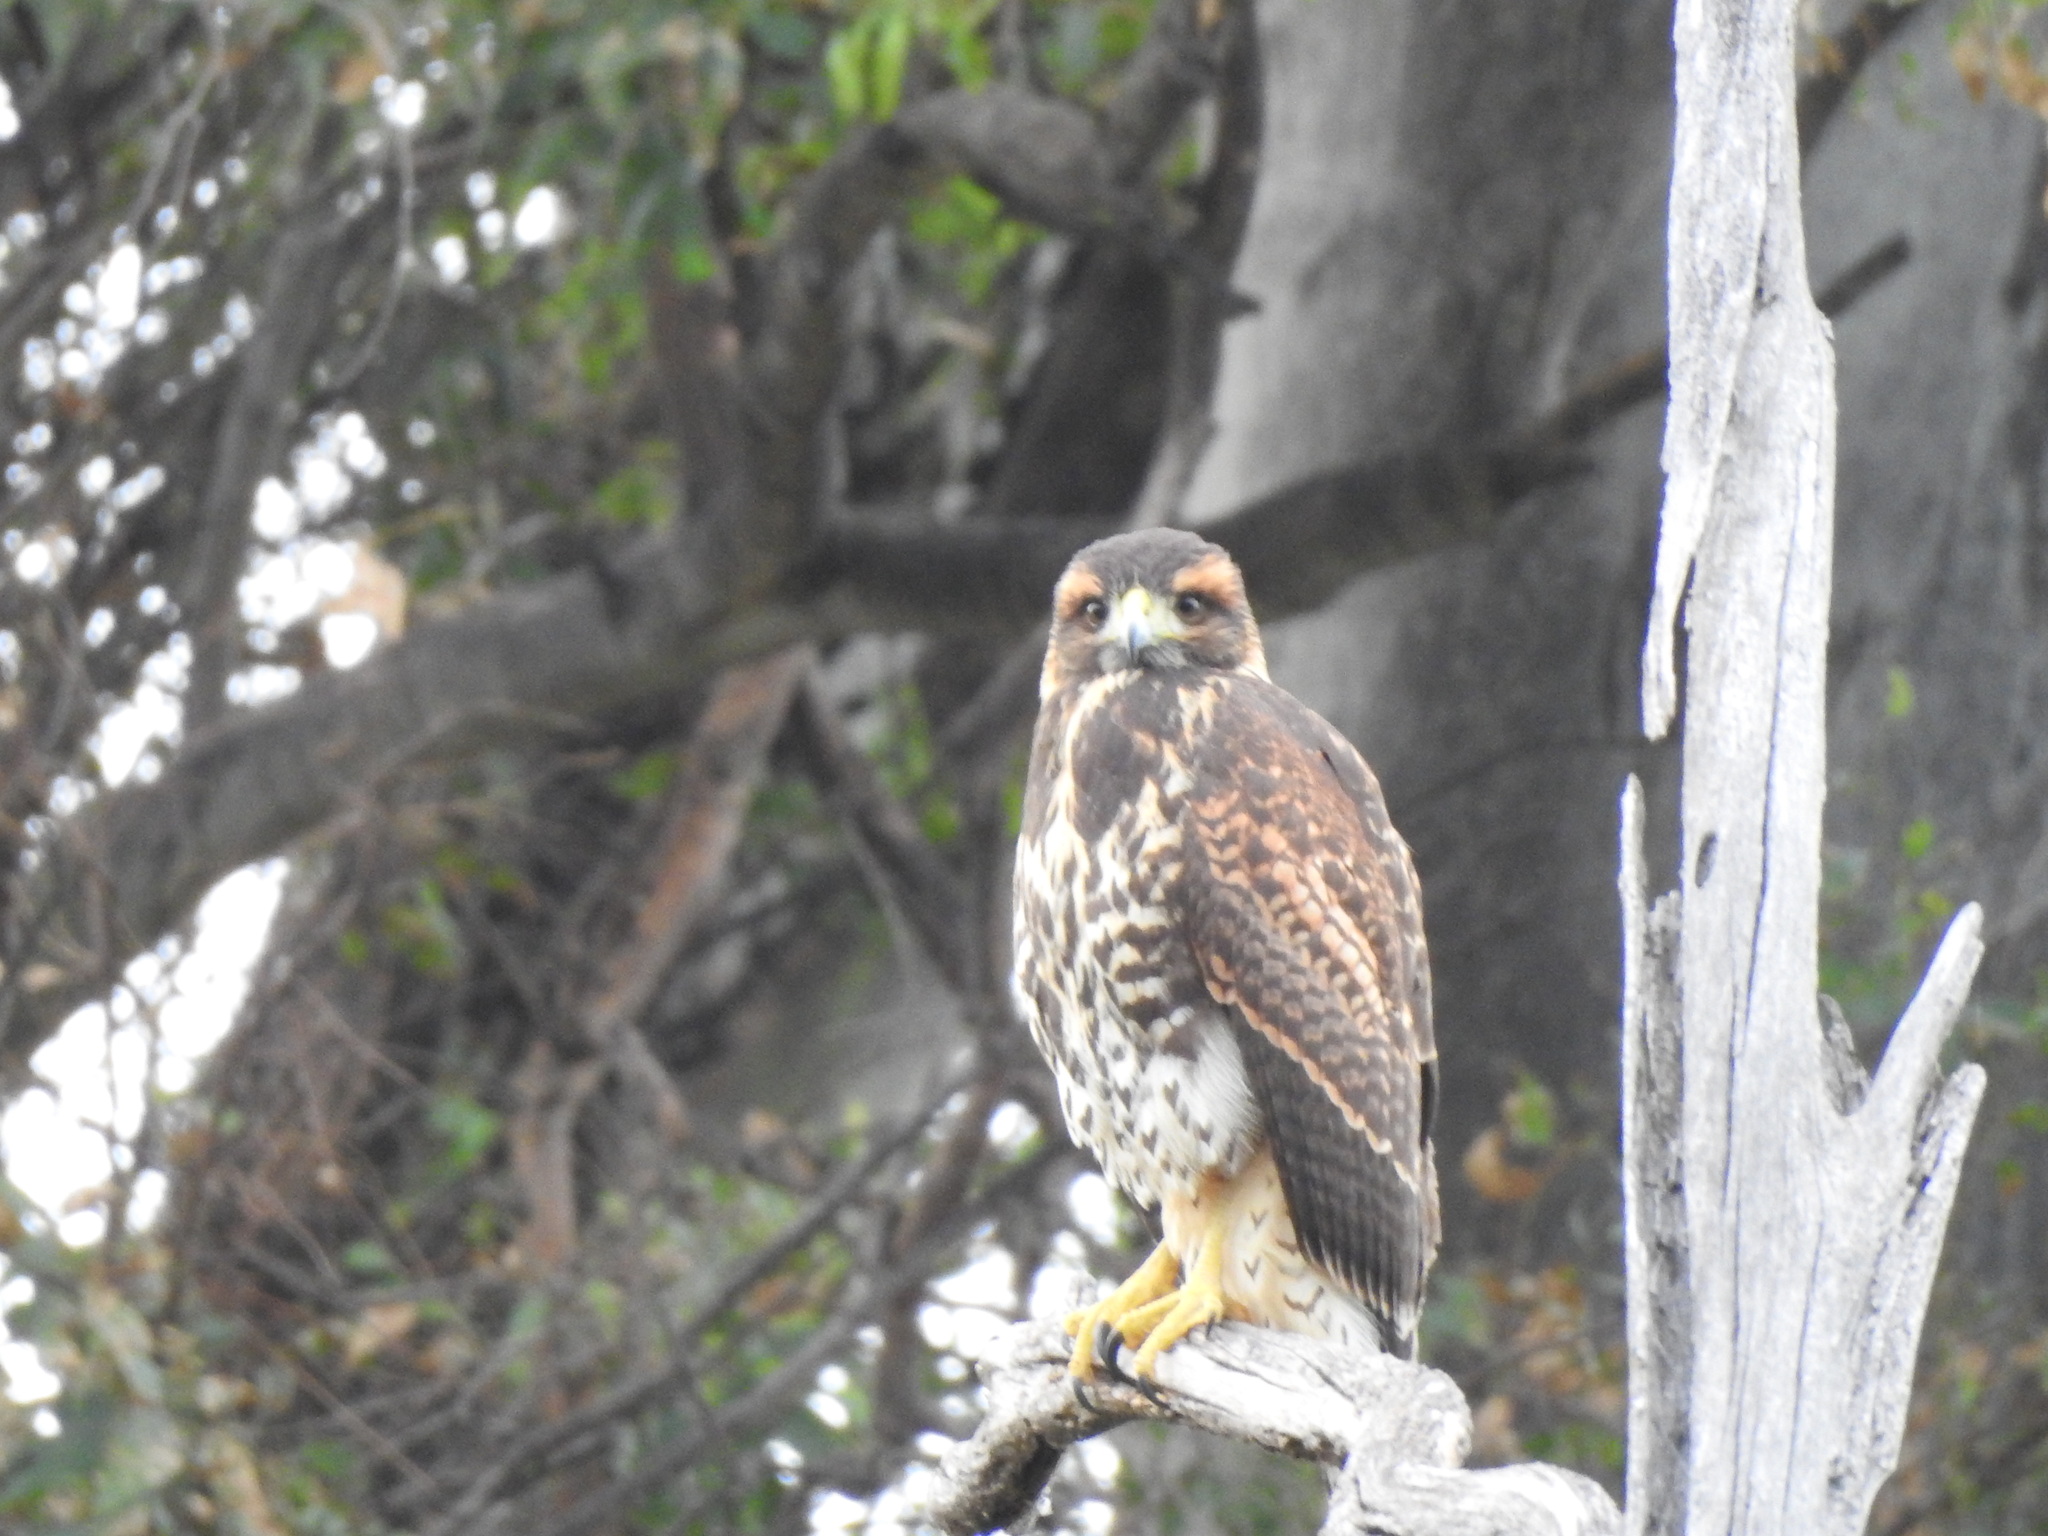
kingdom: Animalia
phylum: Chordata
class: Aves
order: Accipitriformes
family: Accipitridae
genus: Parabuteo
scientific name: Parabuteo unicinctus
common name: Harris's hawk
